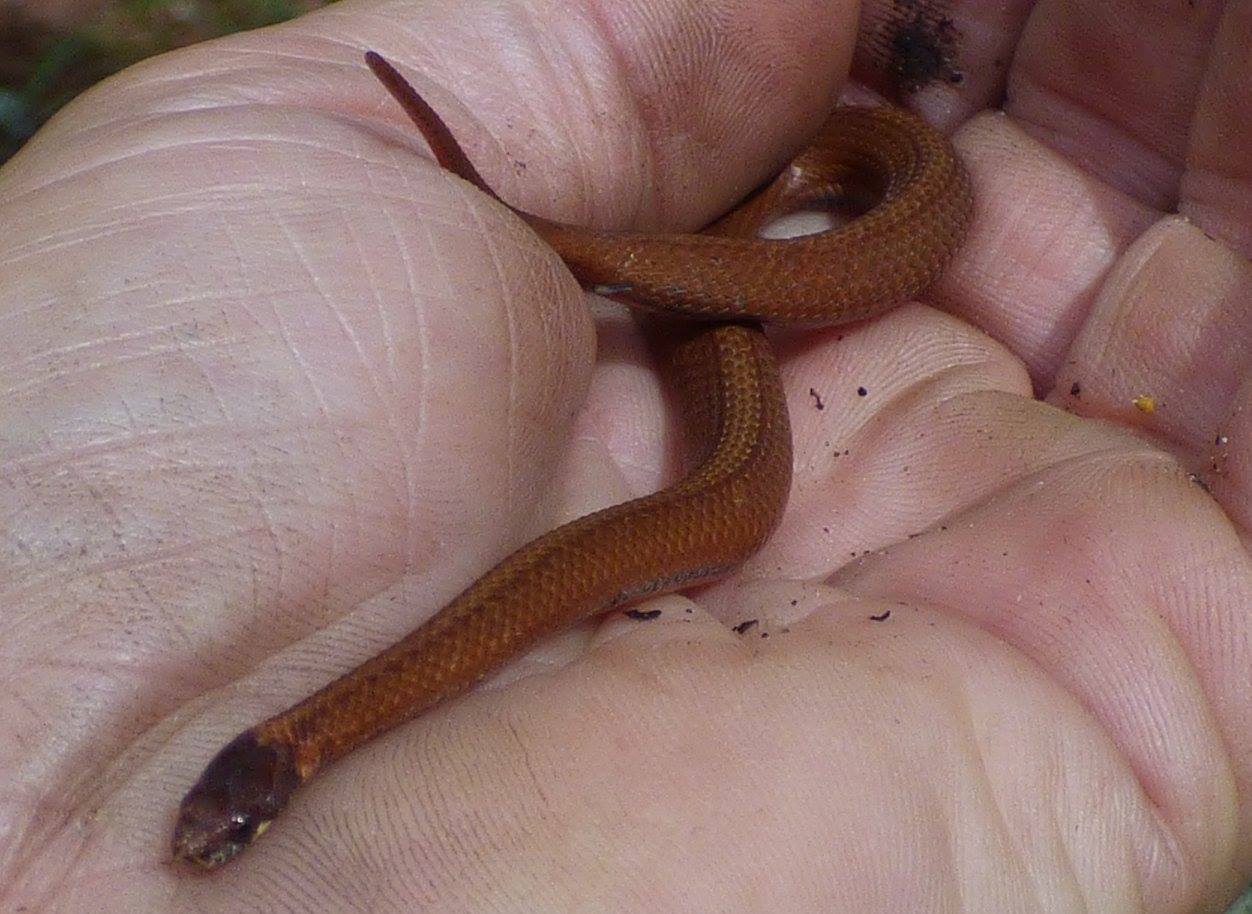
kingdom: Animalia
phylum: Chordata
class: Squamata
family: Colubridae
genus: Storeria
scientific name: Storeria occipitomaculata
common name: Redbelly snake
